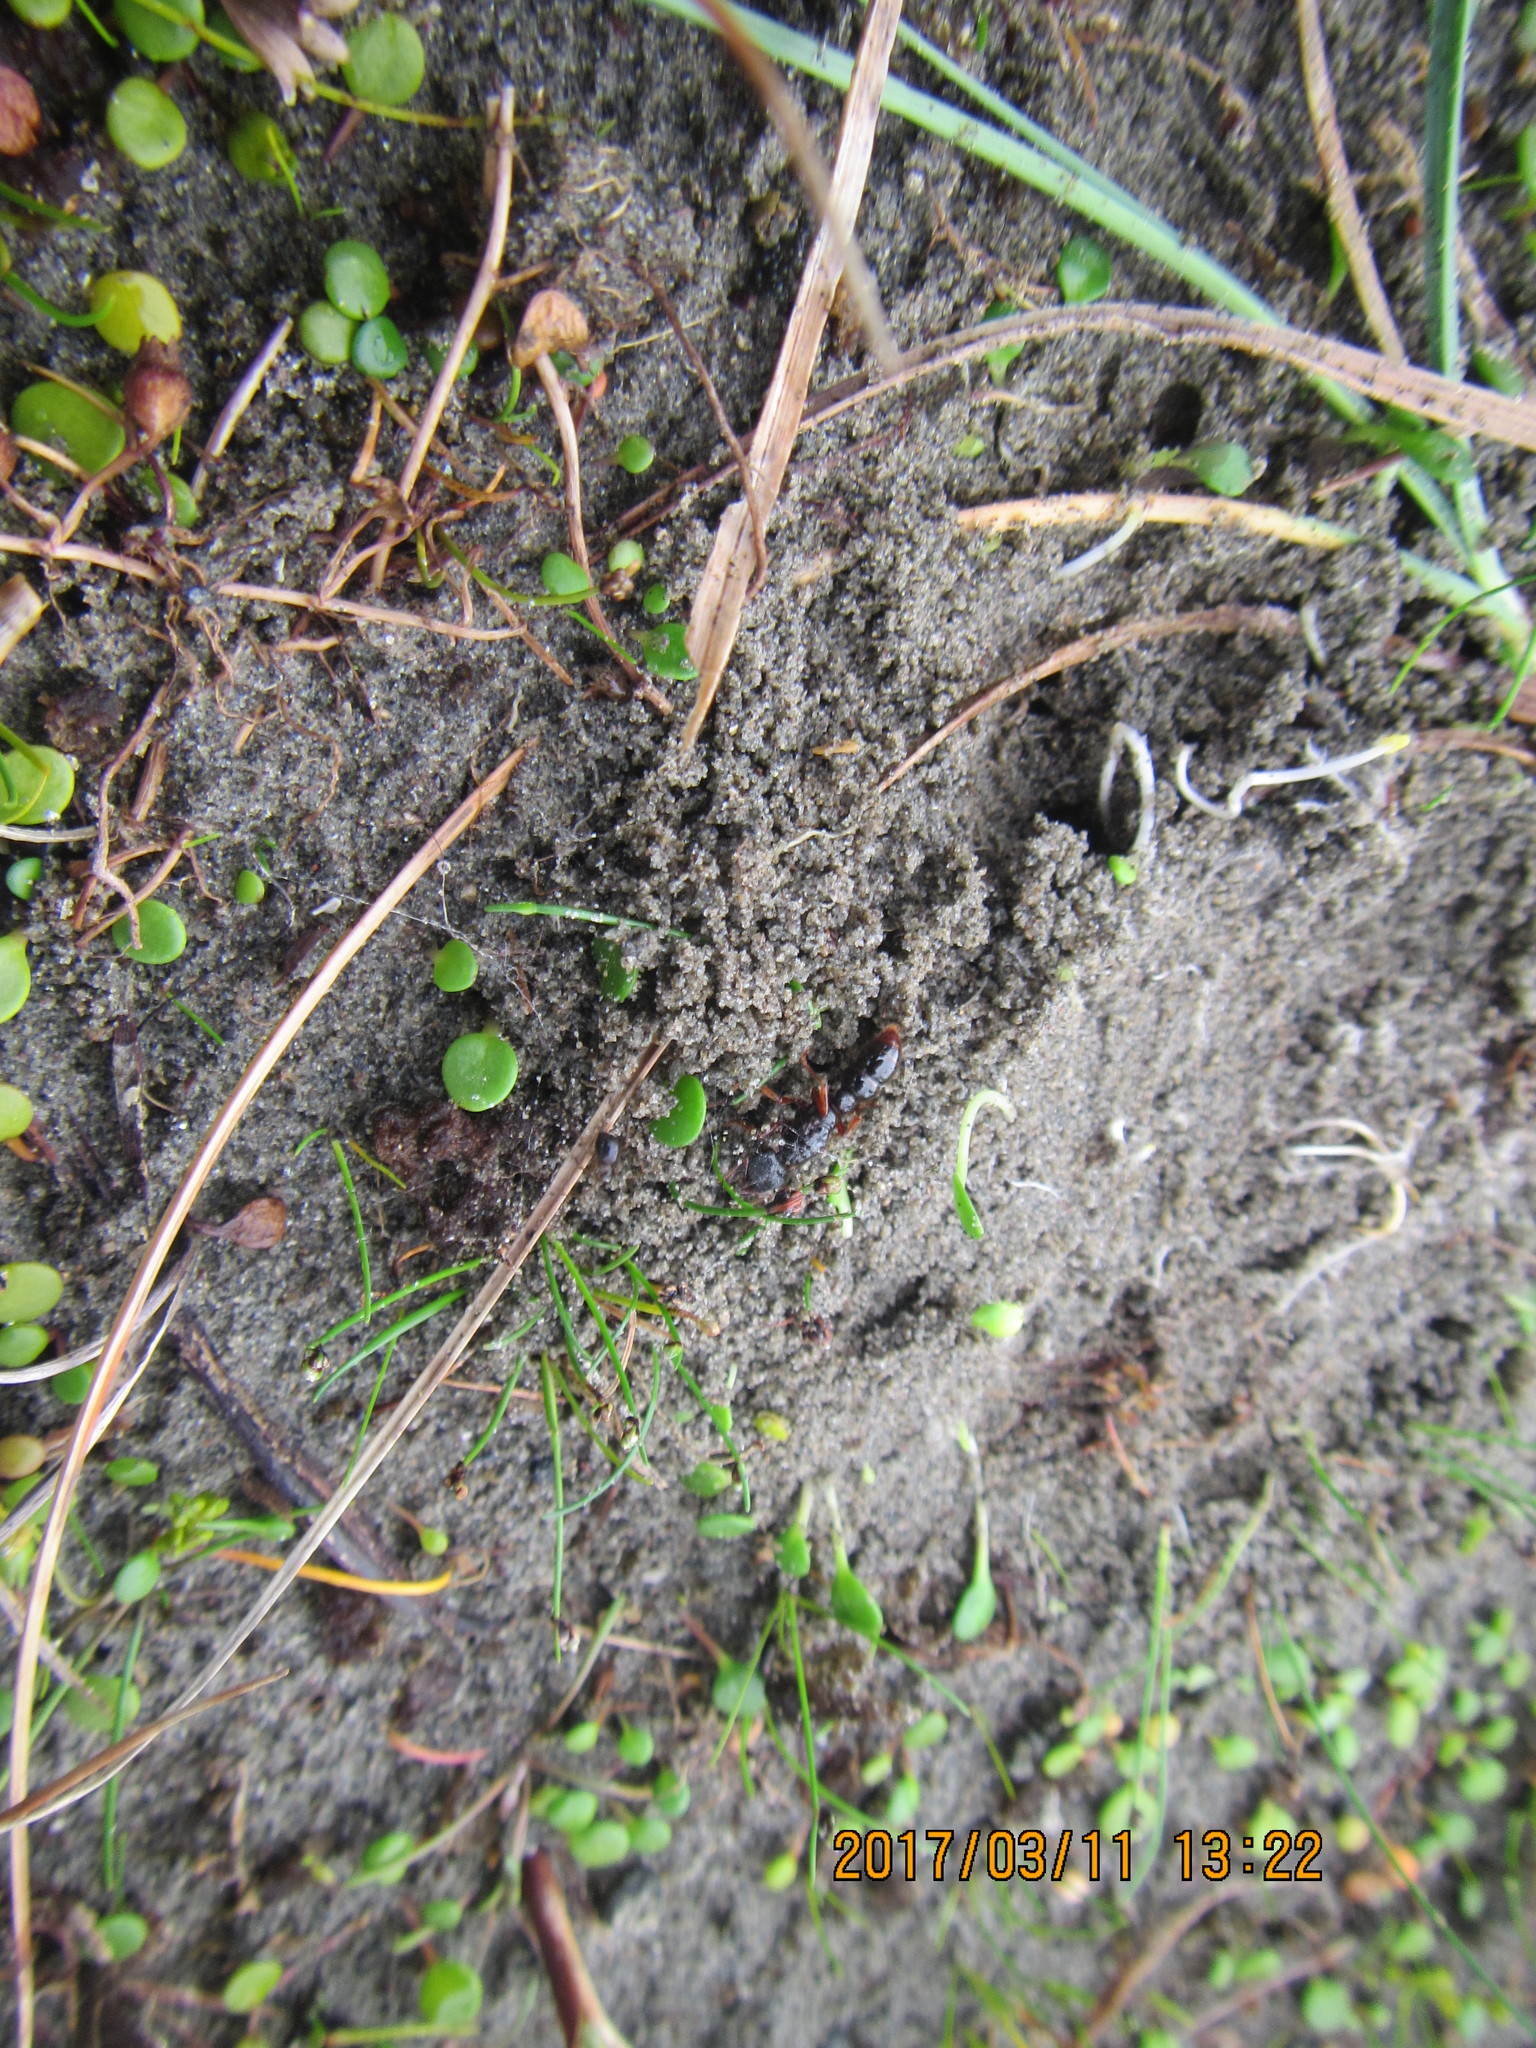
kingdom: Animalia
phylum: Arthropoda
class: Insecta
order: Hymenoptera
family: Formicidae
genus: Amblyopone
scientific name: Amblyopone australis
